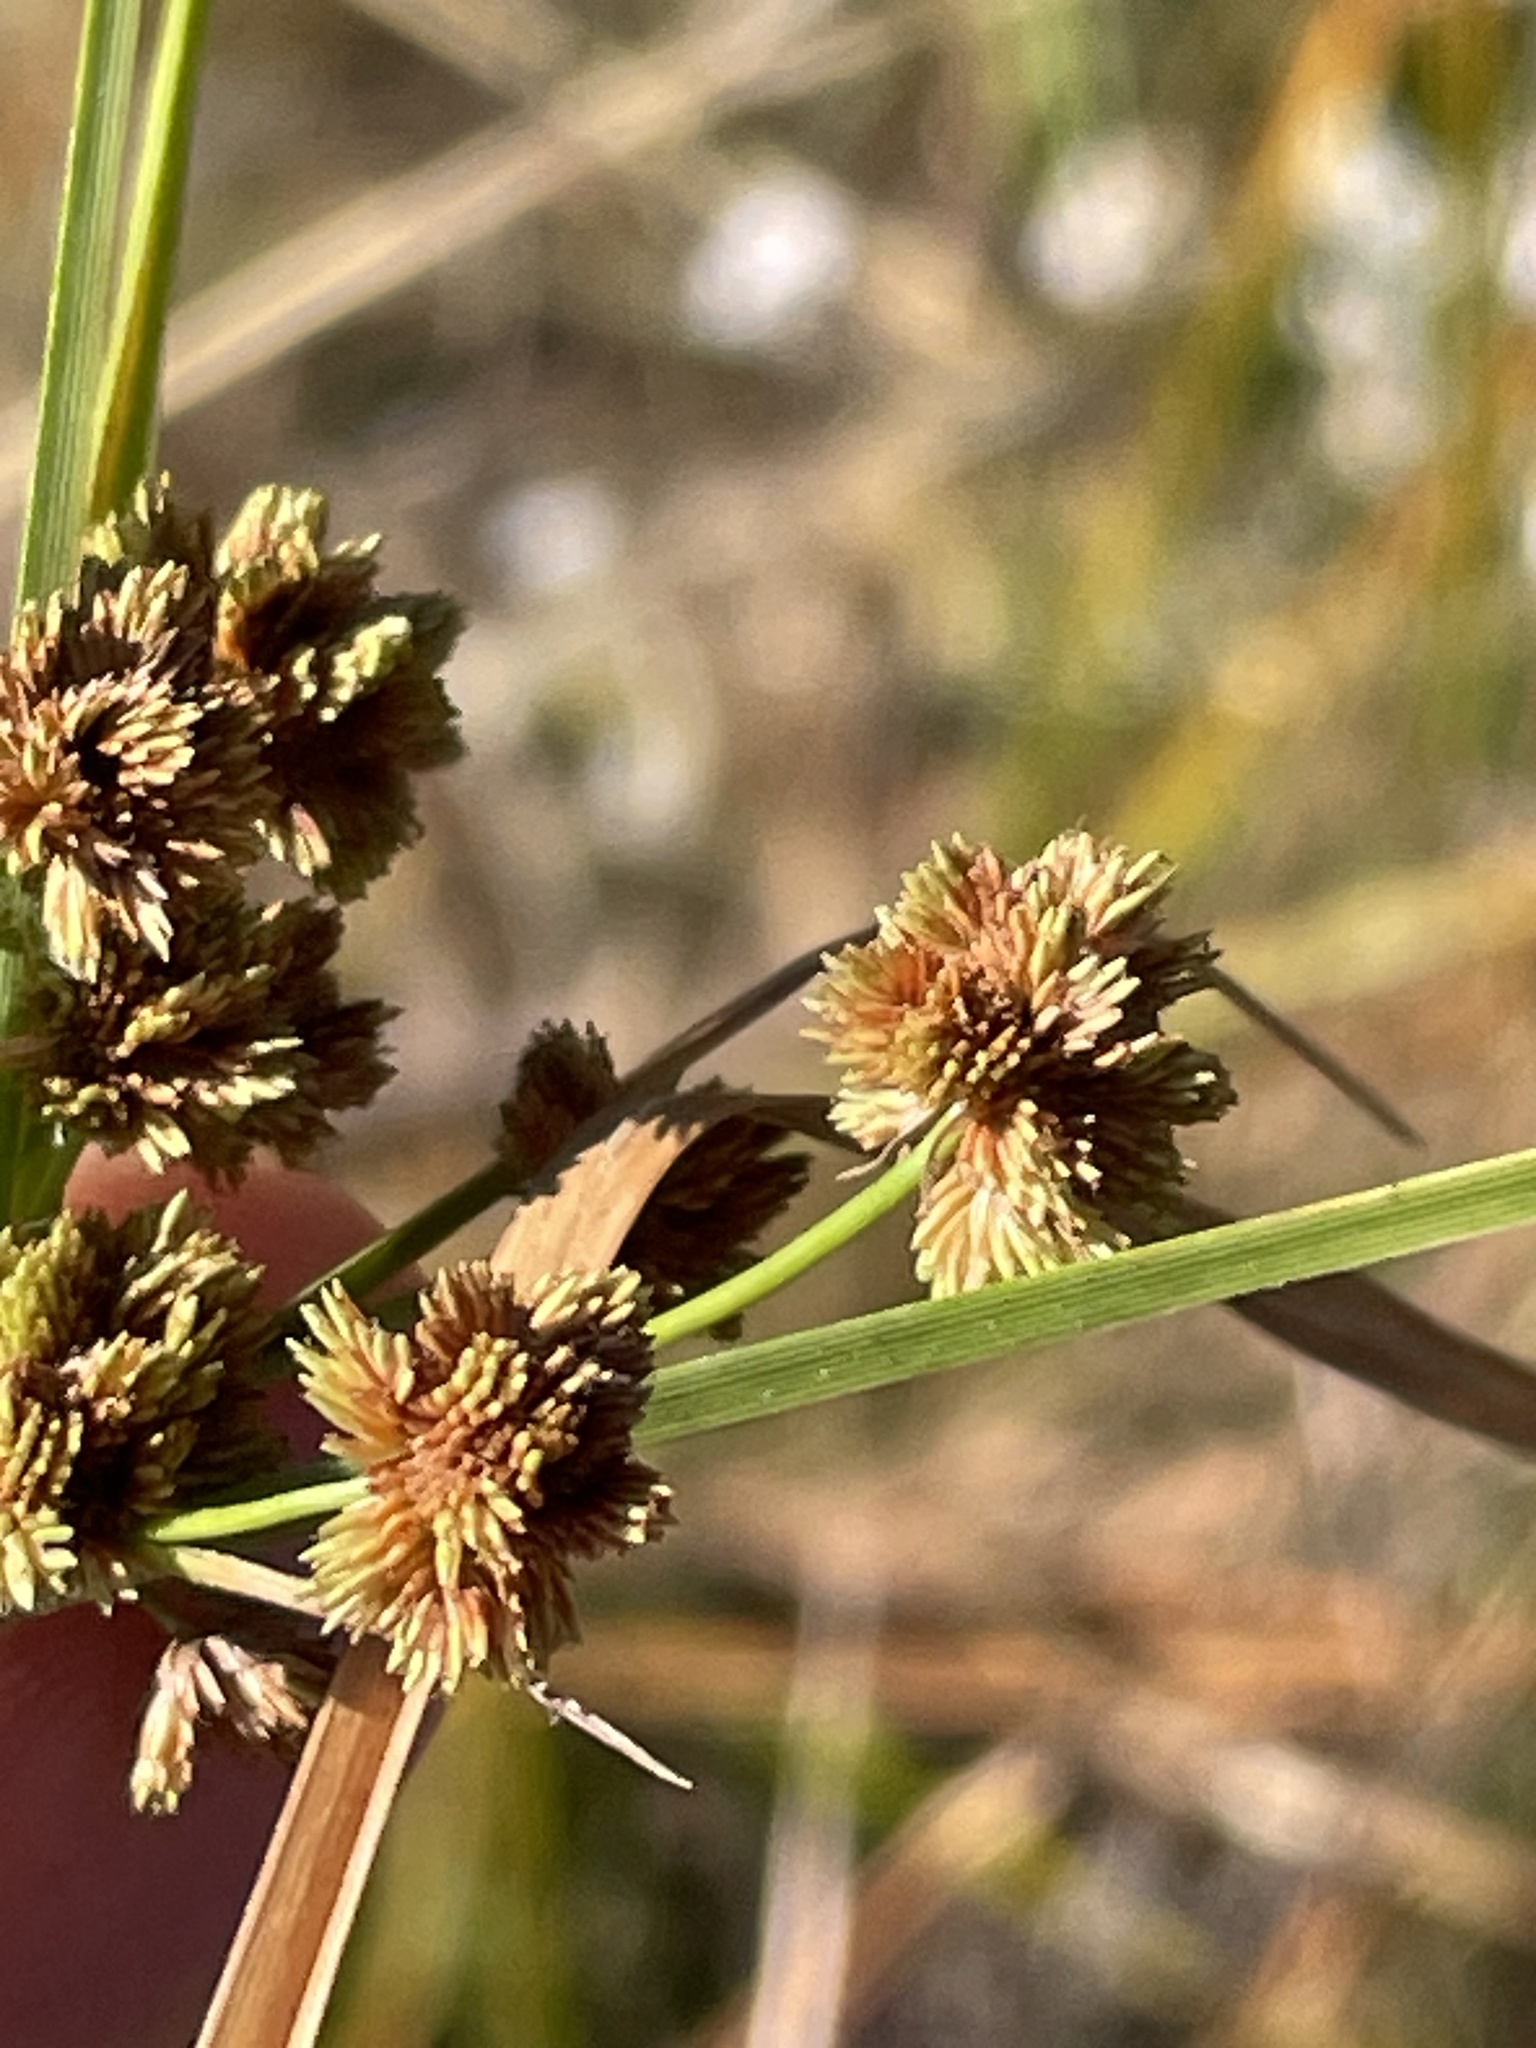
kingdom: Plantae
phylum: Tracheophyta
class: Liliopsida
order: Poales
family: Cyperaceae
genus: Cyperus
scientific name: Cyperus pseudovegetus
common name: Marsh flat sedge
